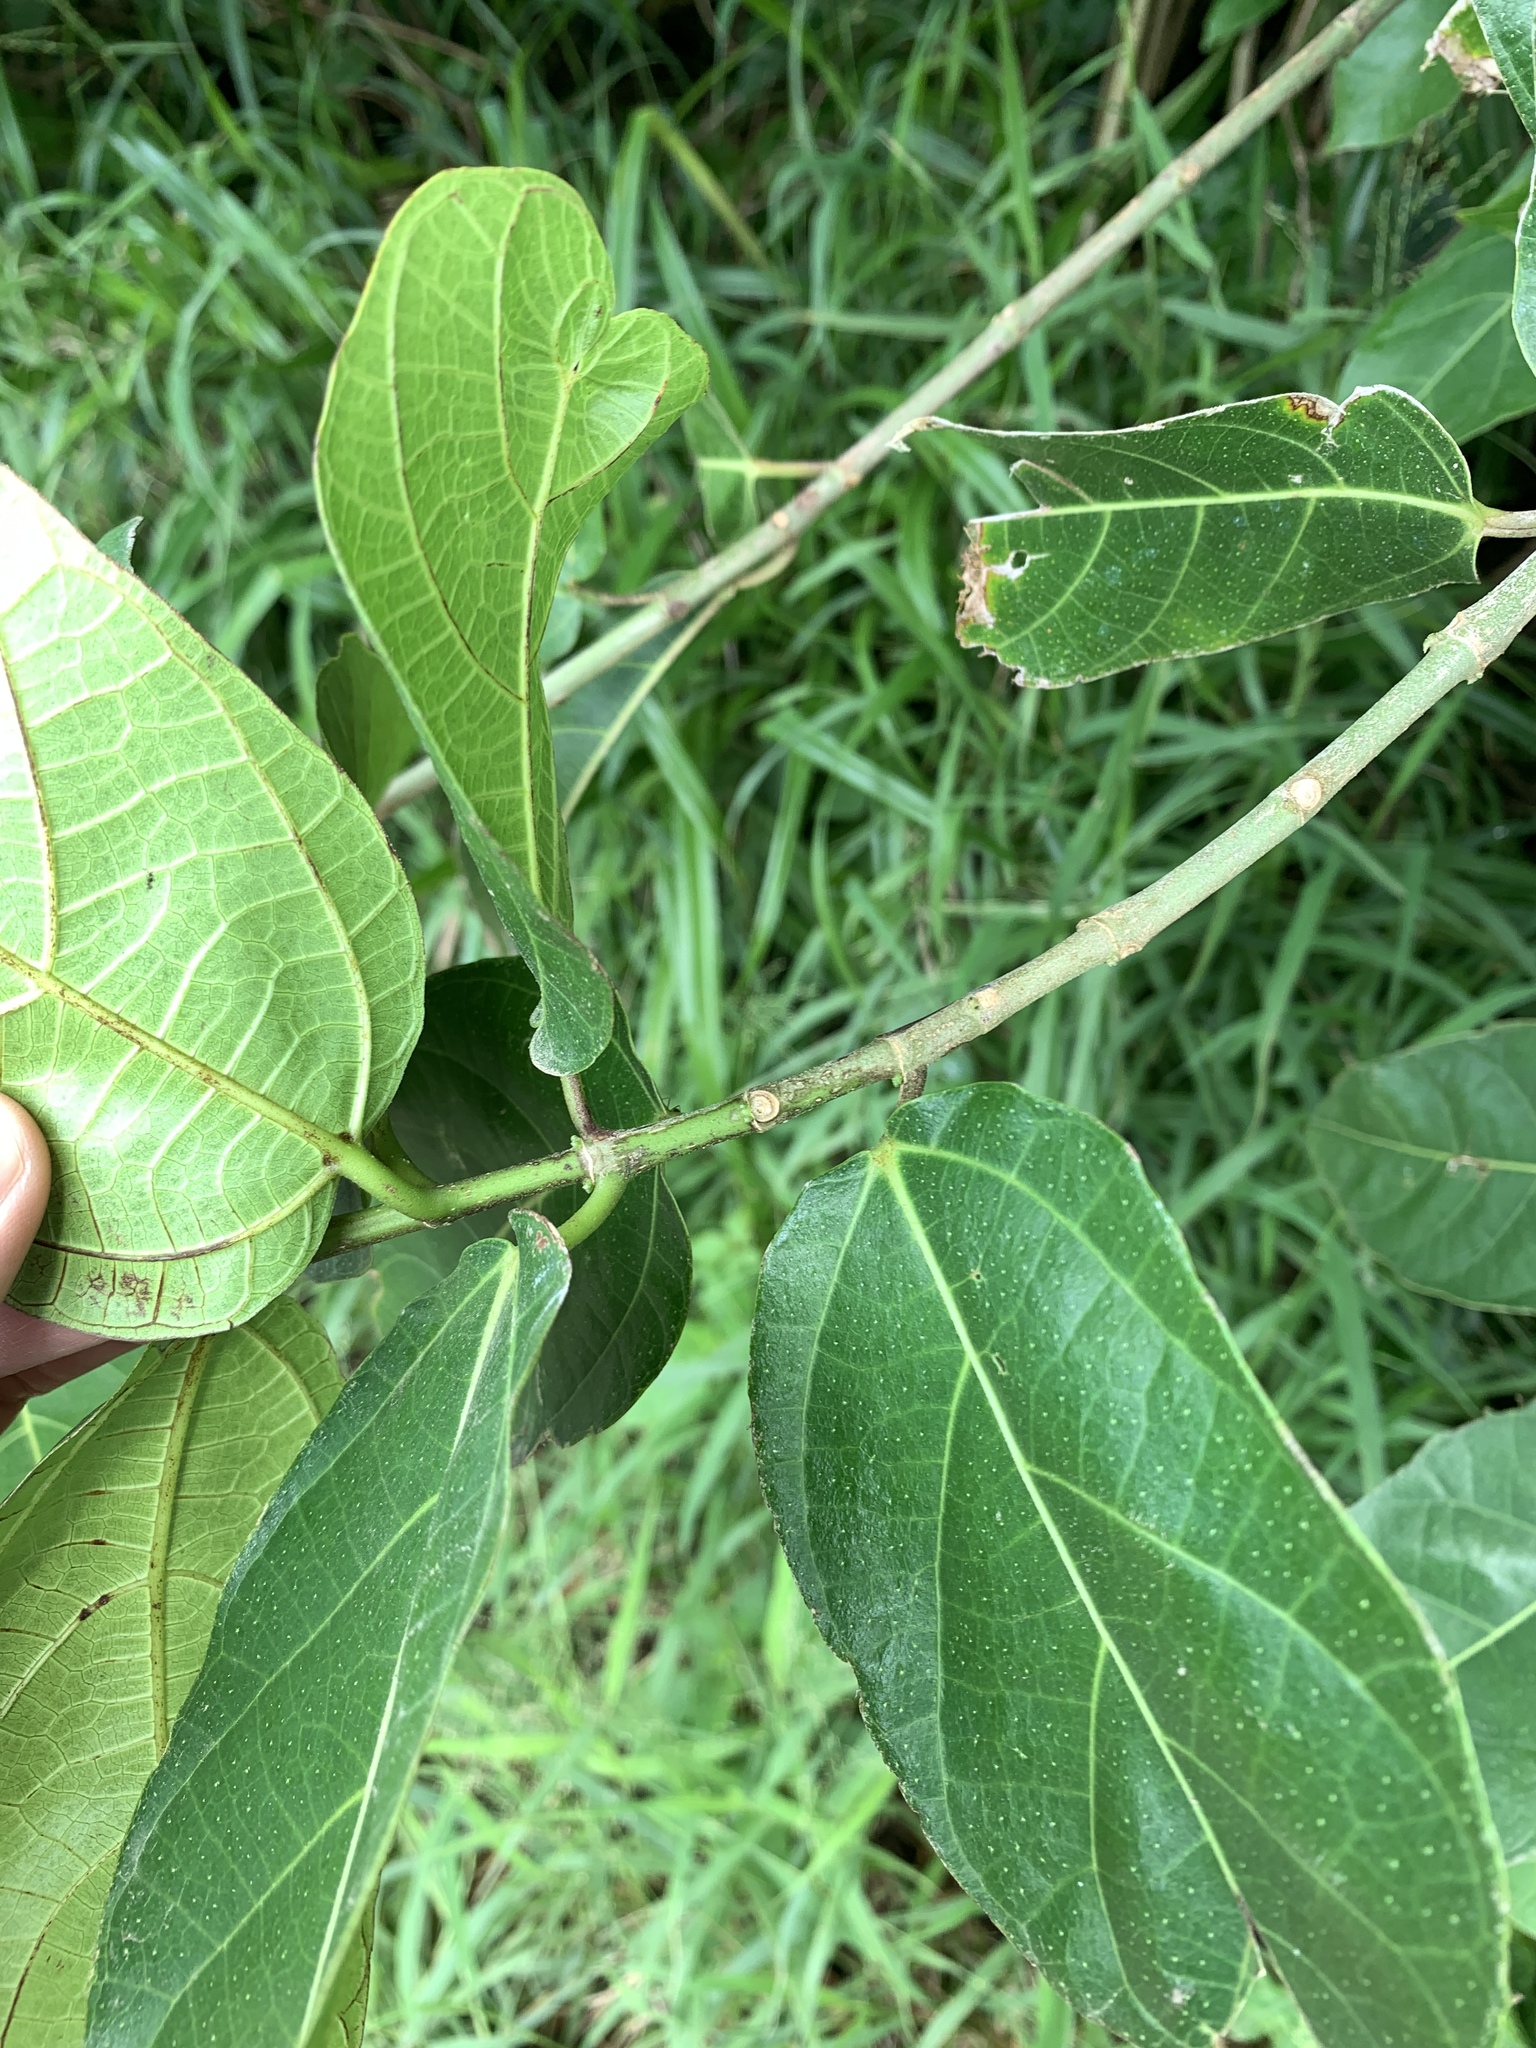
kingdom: Plantae
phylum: Tracheophyta
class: Magnoliopsida
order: Rosales
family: Moraceae
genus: Ficus
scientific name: Ficus cumingii
